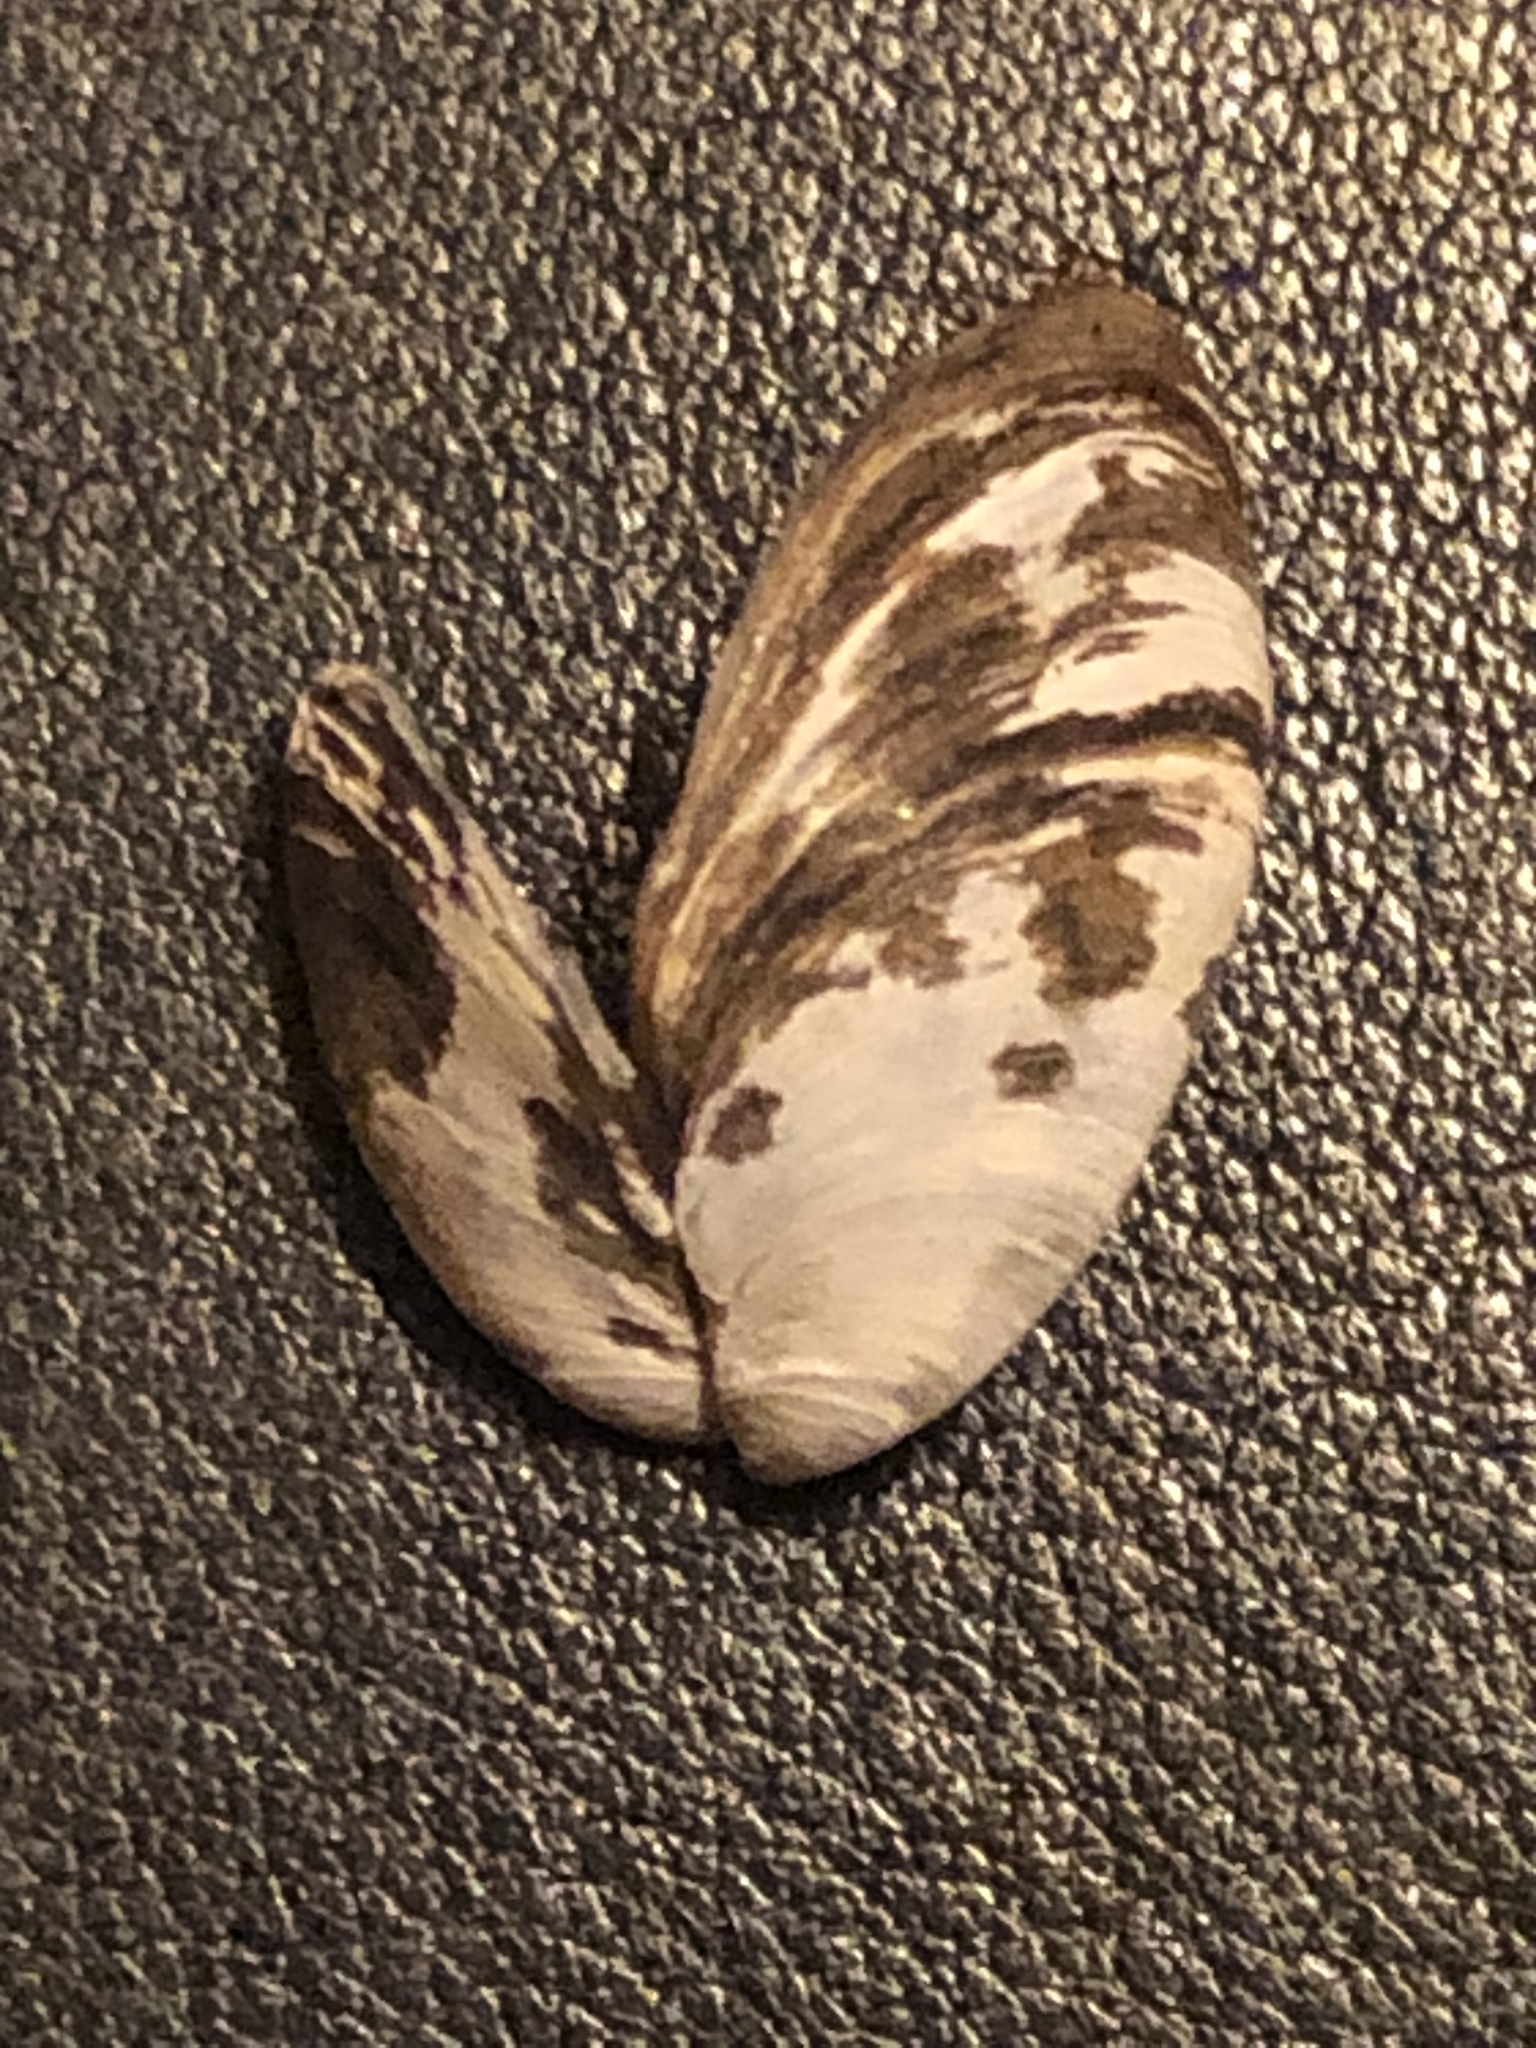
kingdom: Animalia
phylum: Mollusca
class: Bivalvia
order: Myida
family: Dreissenidae
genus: Dreissena
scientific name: Dreissena polymorpha
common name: Zebra mussel
